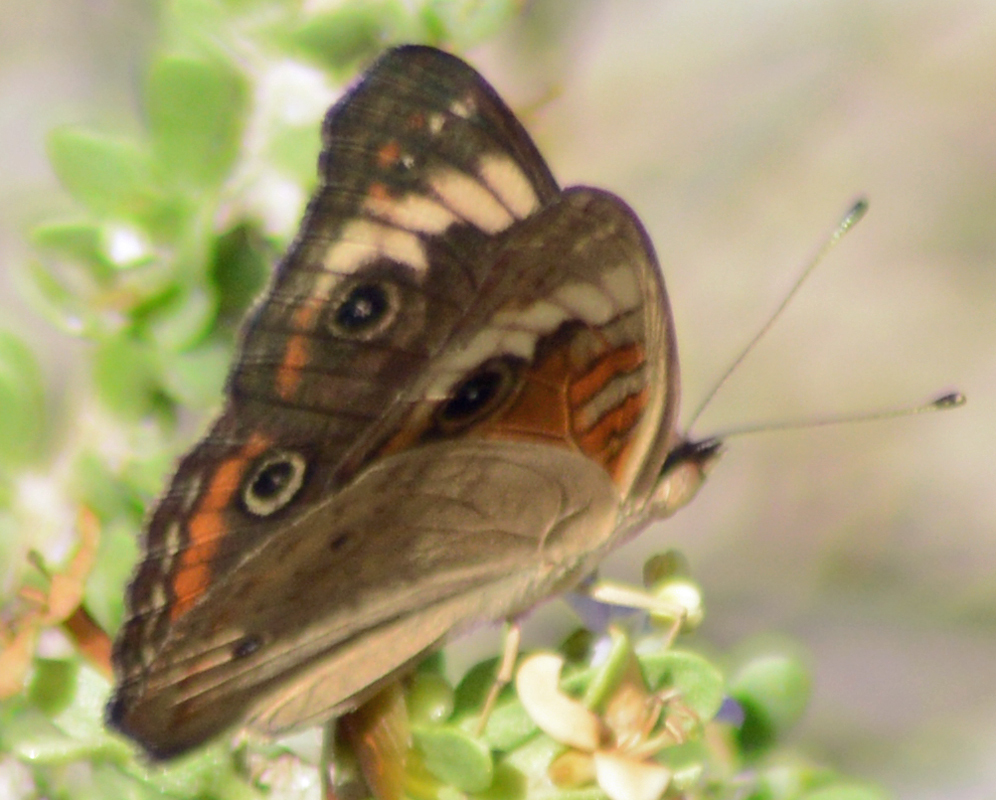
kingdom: Animalia
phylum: Arthropoda
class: Insecta
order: Lepidoptera
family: Nymphalidae
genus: Junonia
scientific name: Junonia pacoma
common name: Pacific mangrove buckeye
